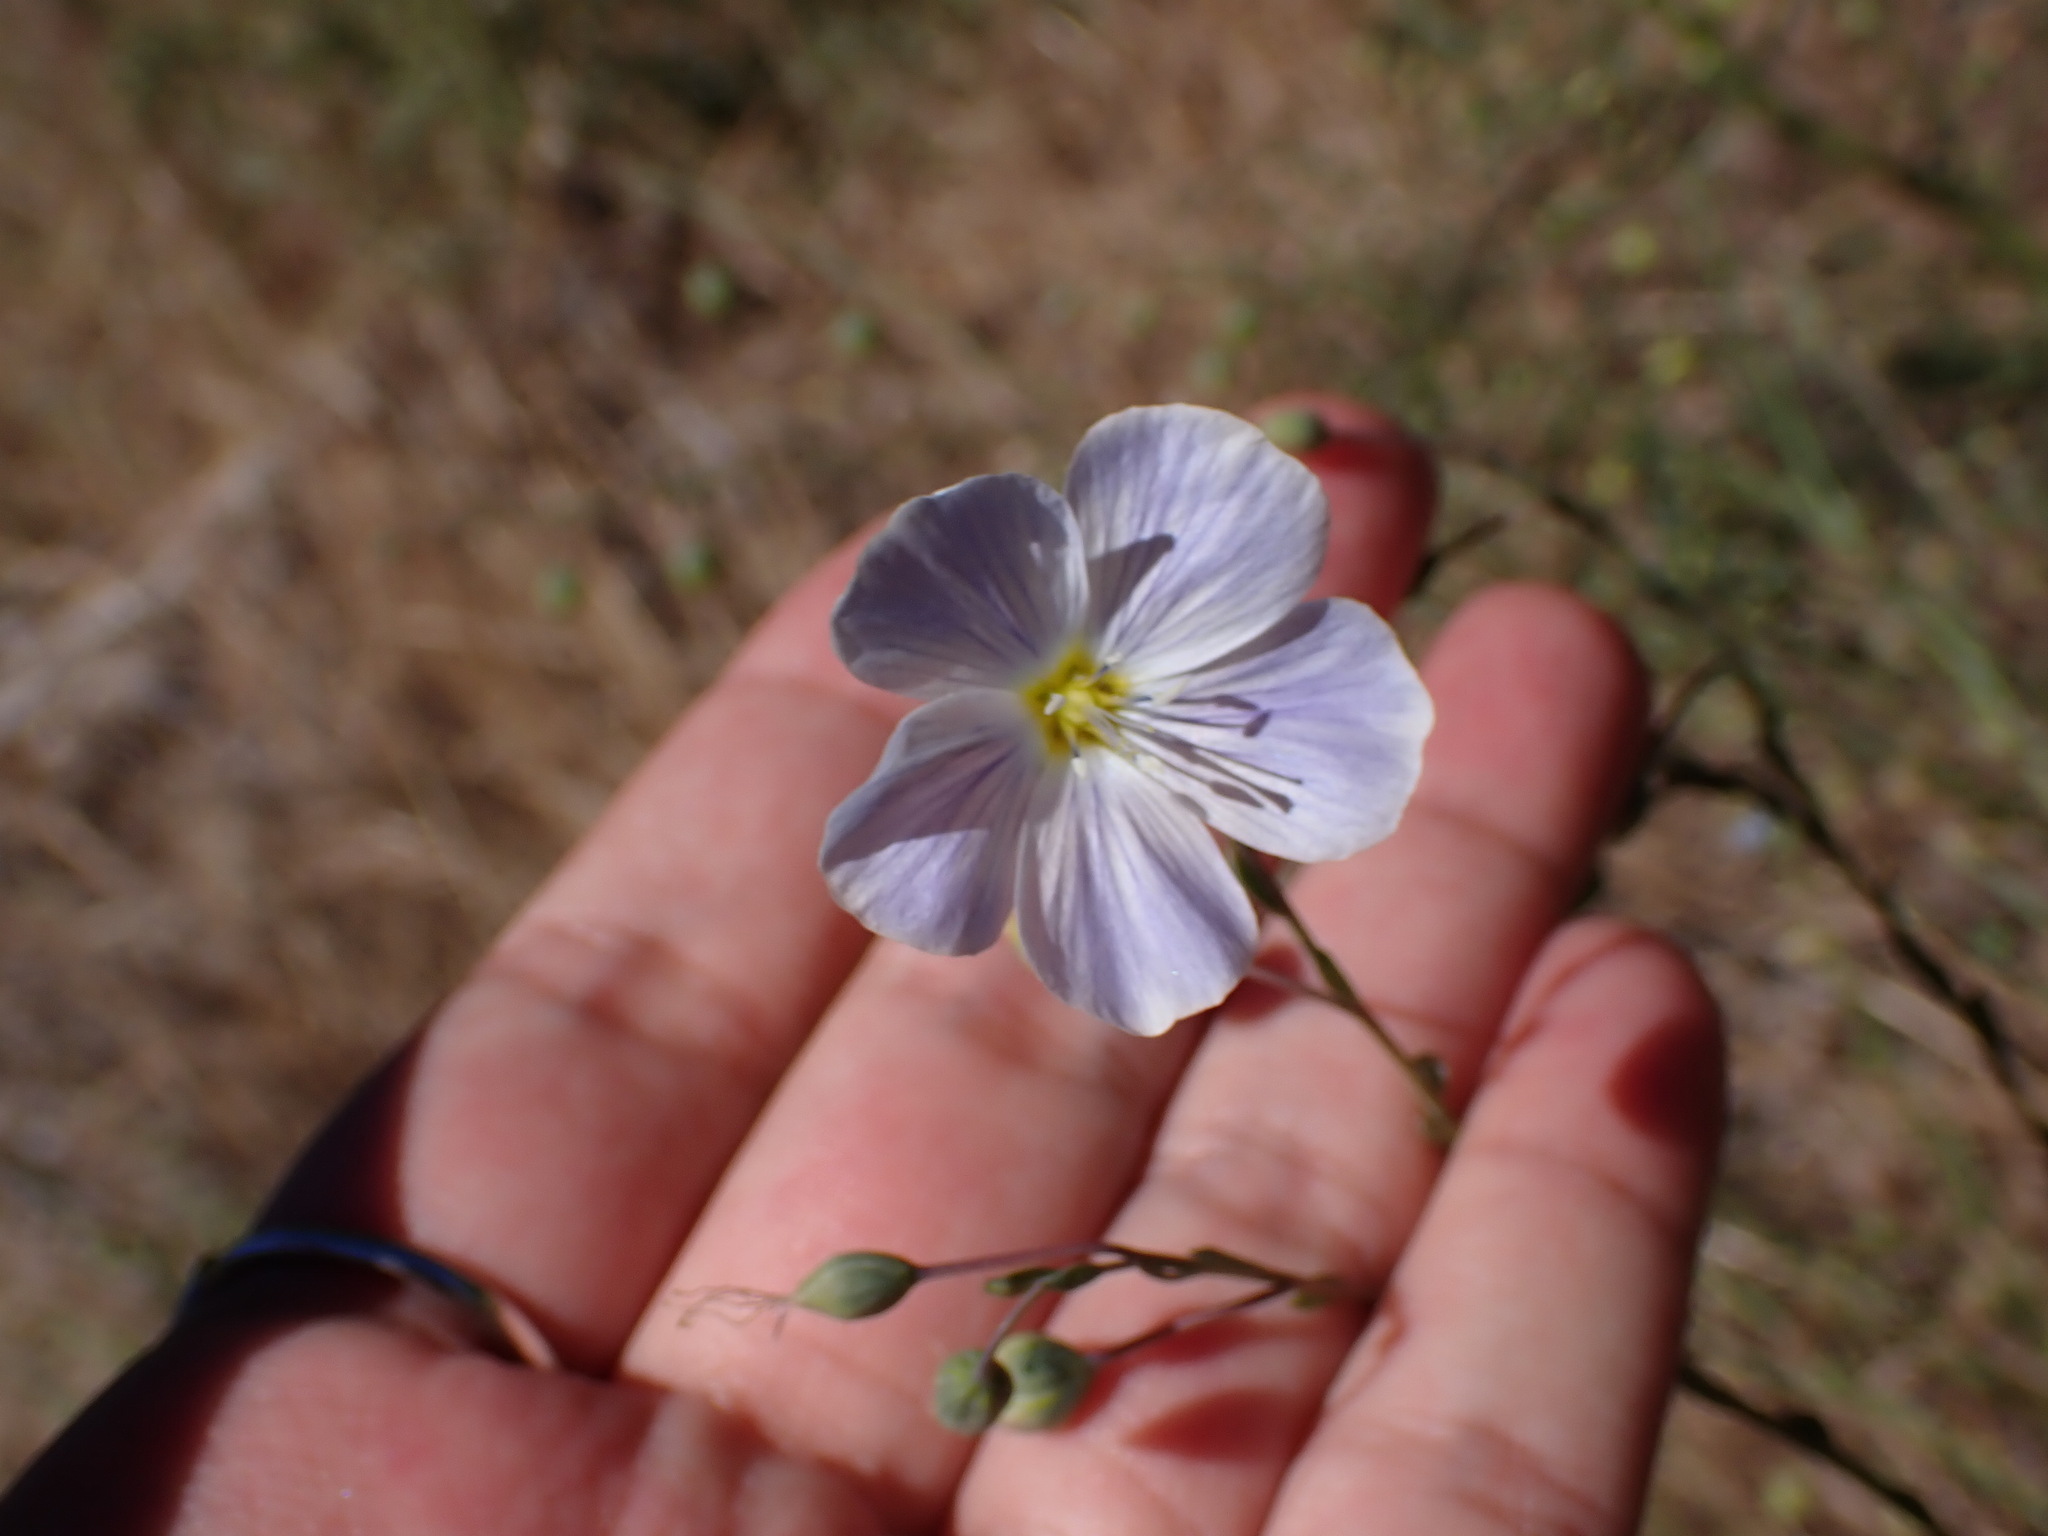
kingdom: Plantae
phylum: Tracheophyta
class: Magnoliopsida
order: Malpighiales
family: Linaceae
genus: Linum
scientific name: Linum lewisii
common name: Prairie flax
